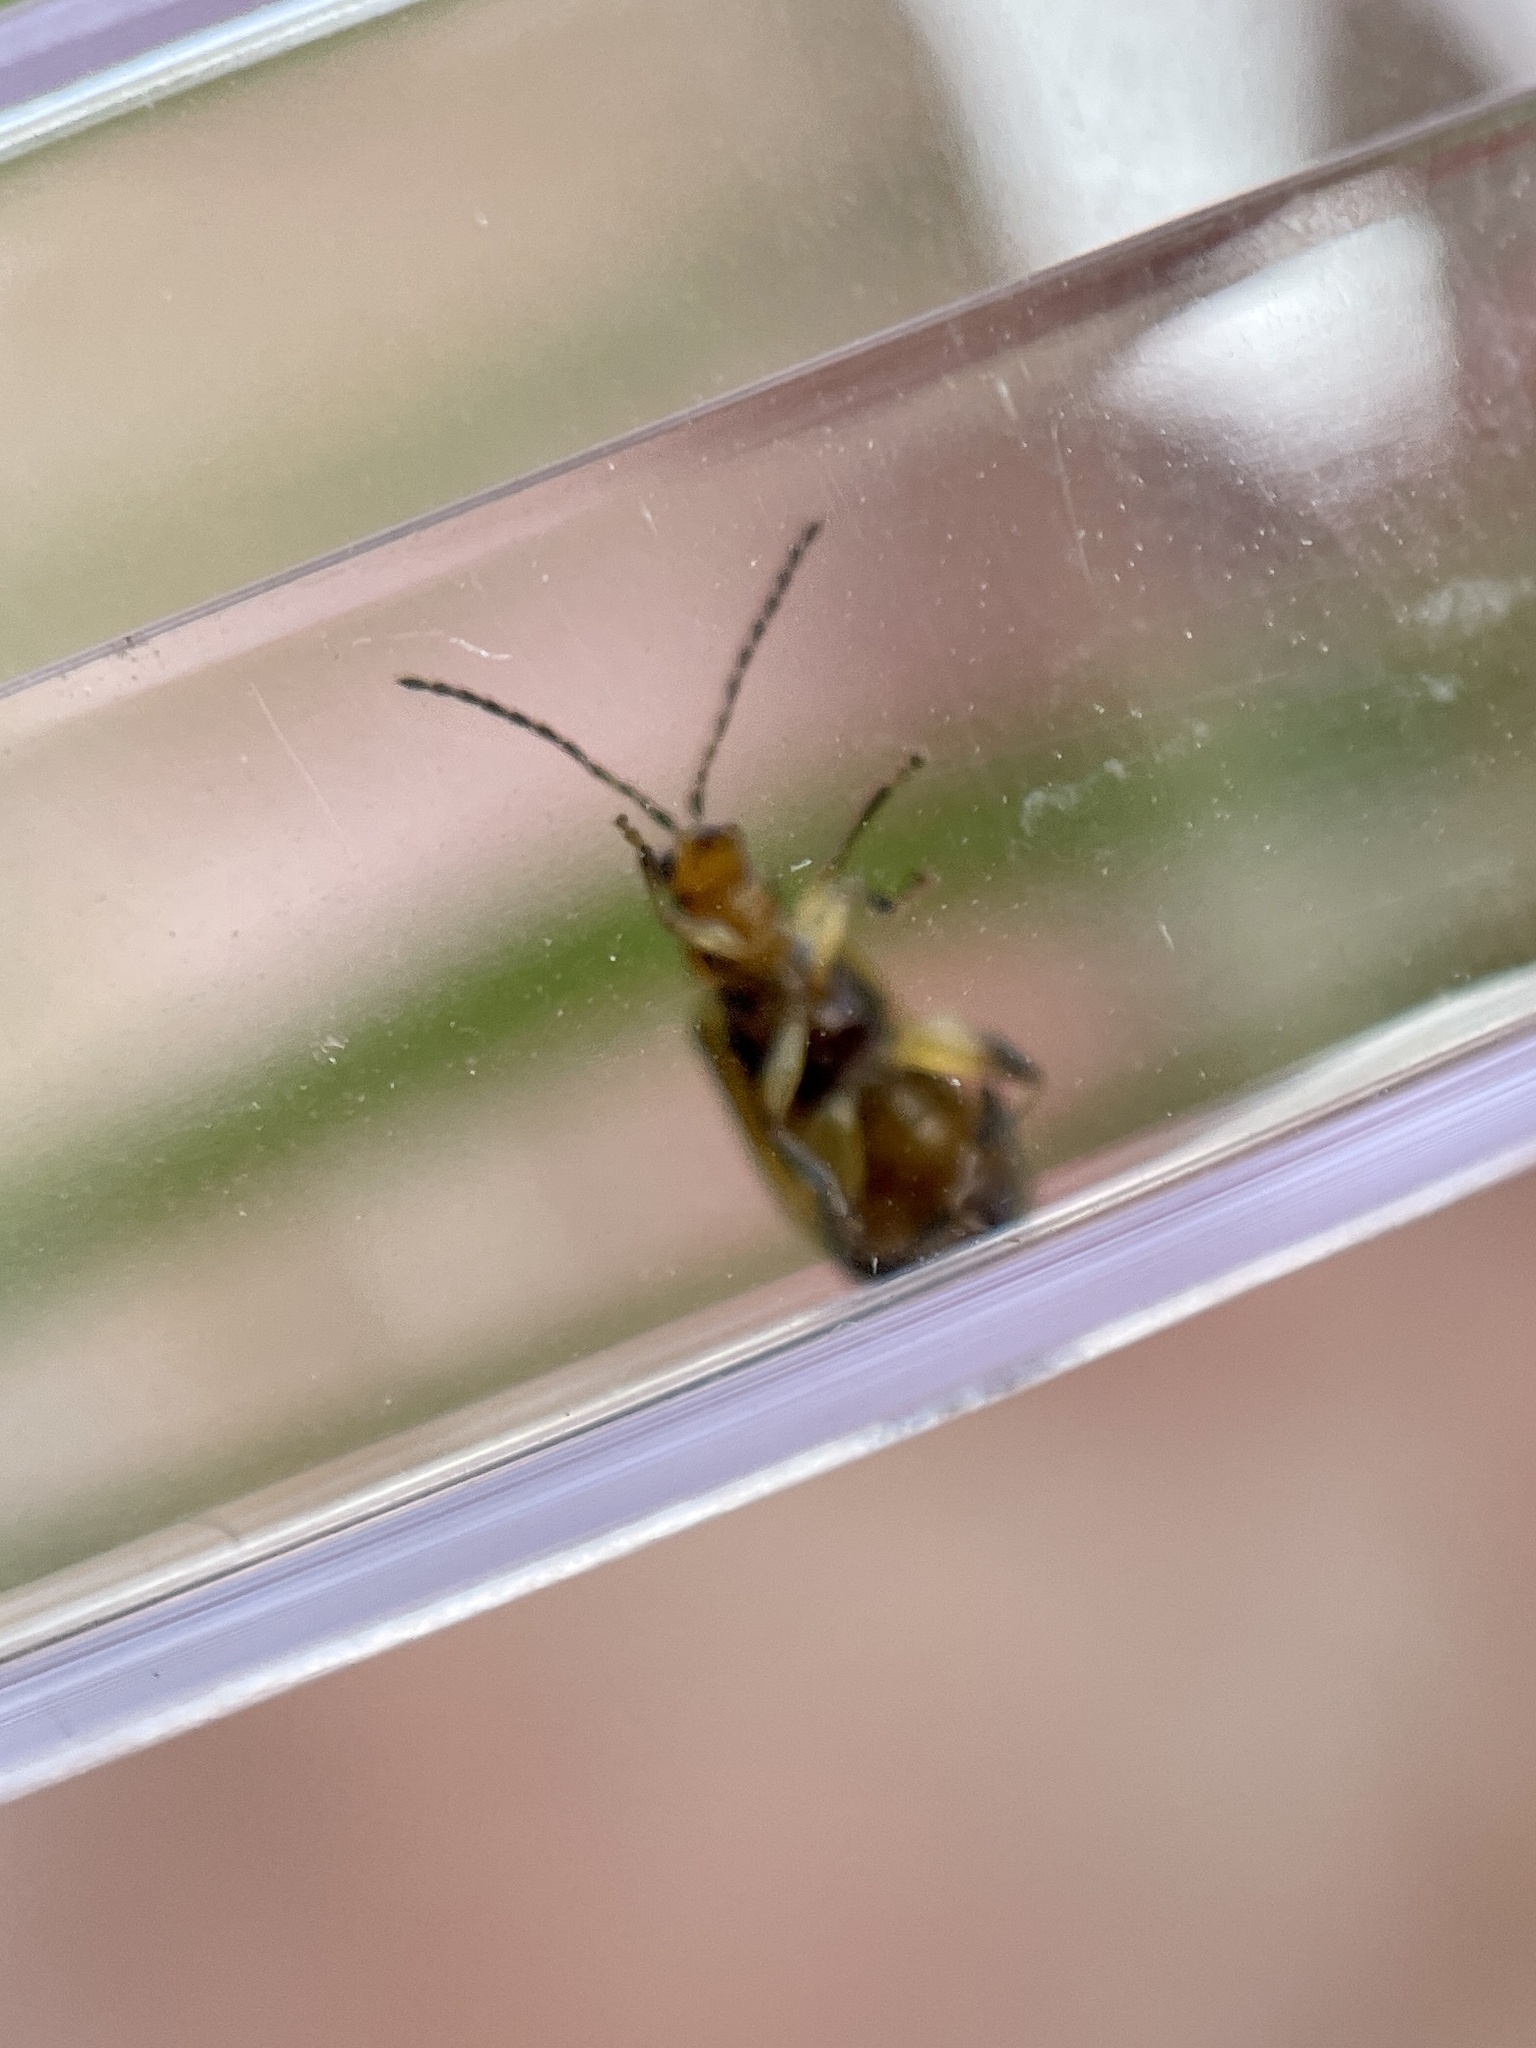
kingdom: Animalia
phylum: Arthropoda
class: Insecta
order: Coleoptera
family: Chrysomelidae
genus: Systena
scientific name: Systena gracilenta
